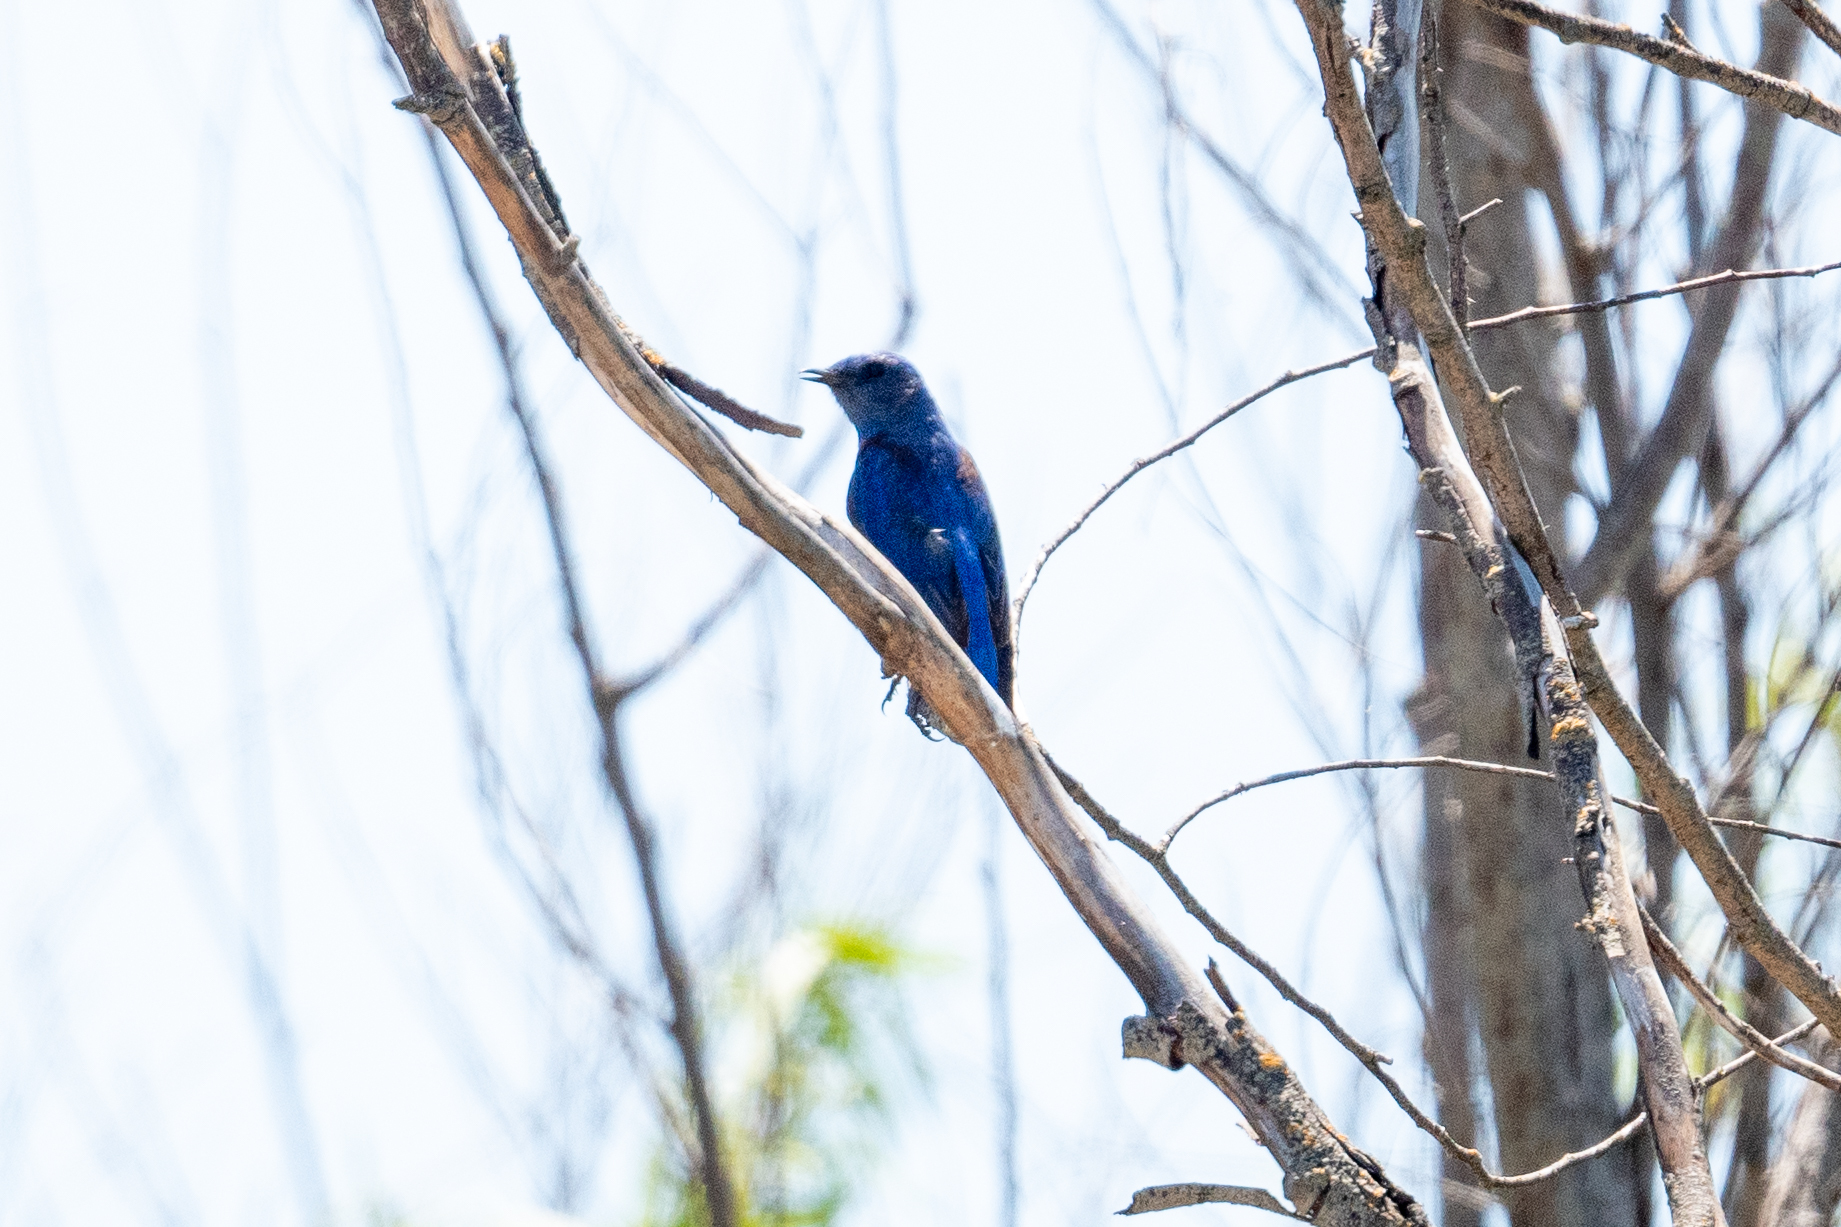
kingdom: Animalia
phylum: Chordata
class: Aves
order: Passeriformes
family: Turdidae
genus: Sialia
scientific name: Sialia mexicana
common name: Western bluebird
